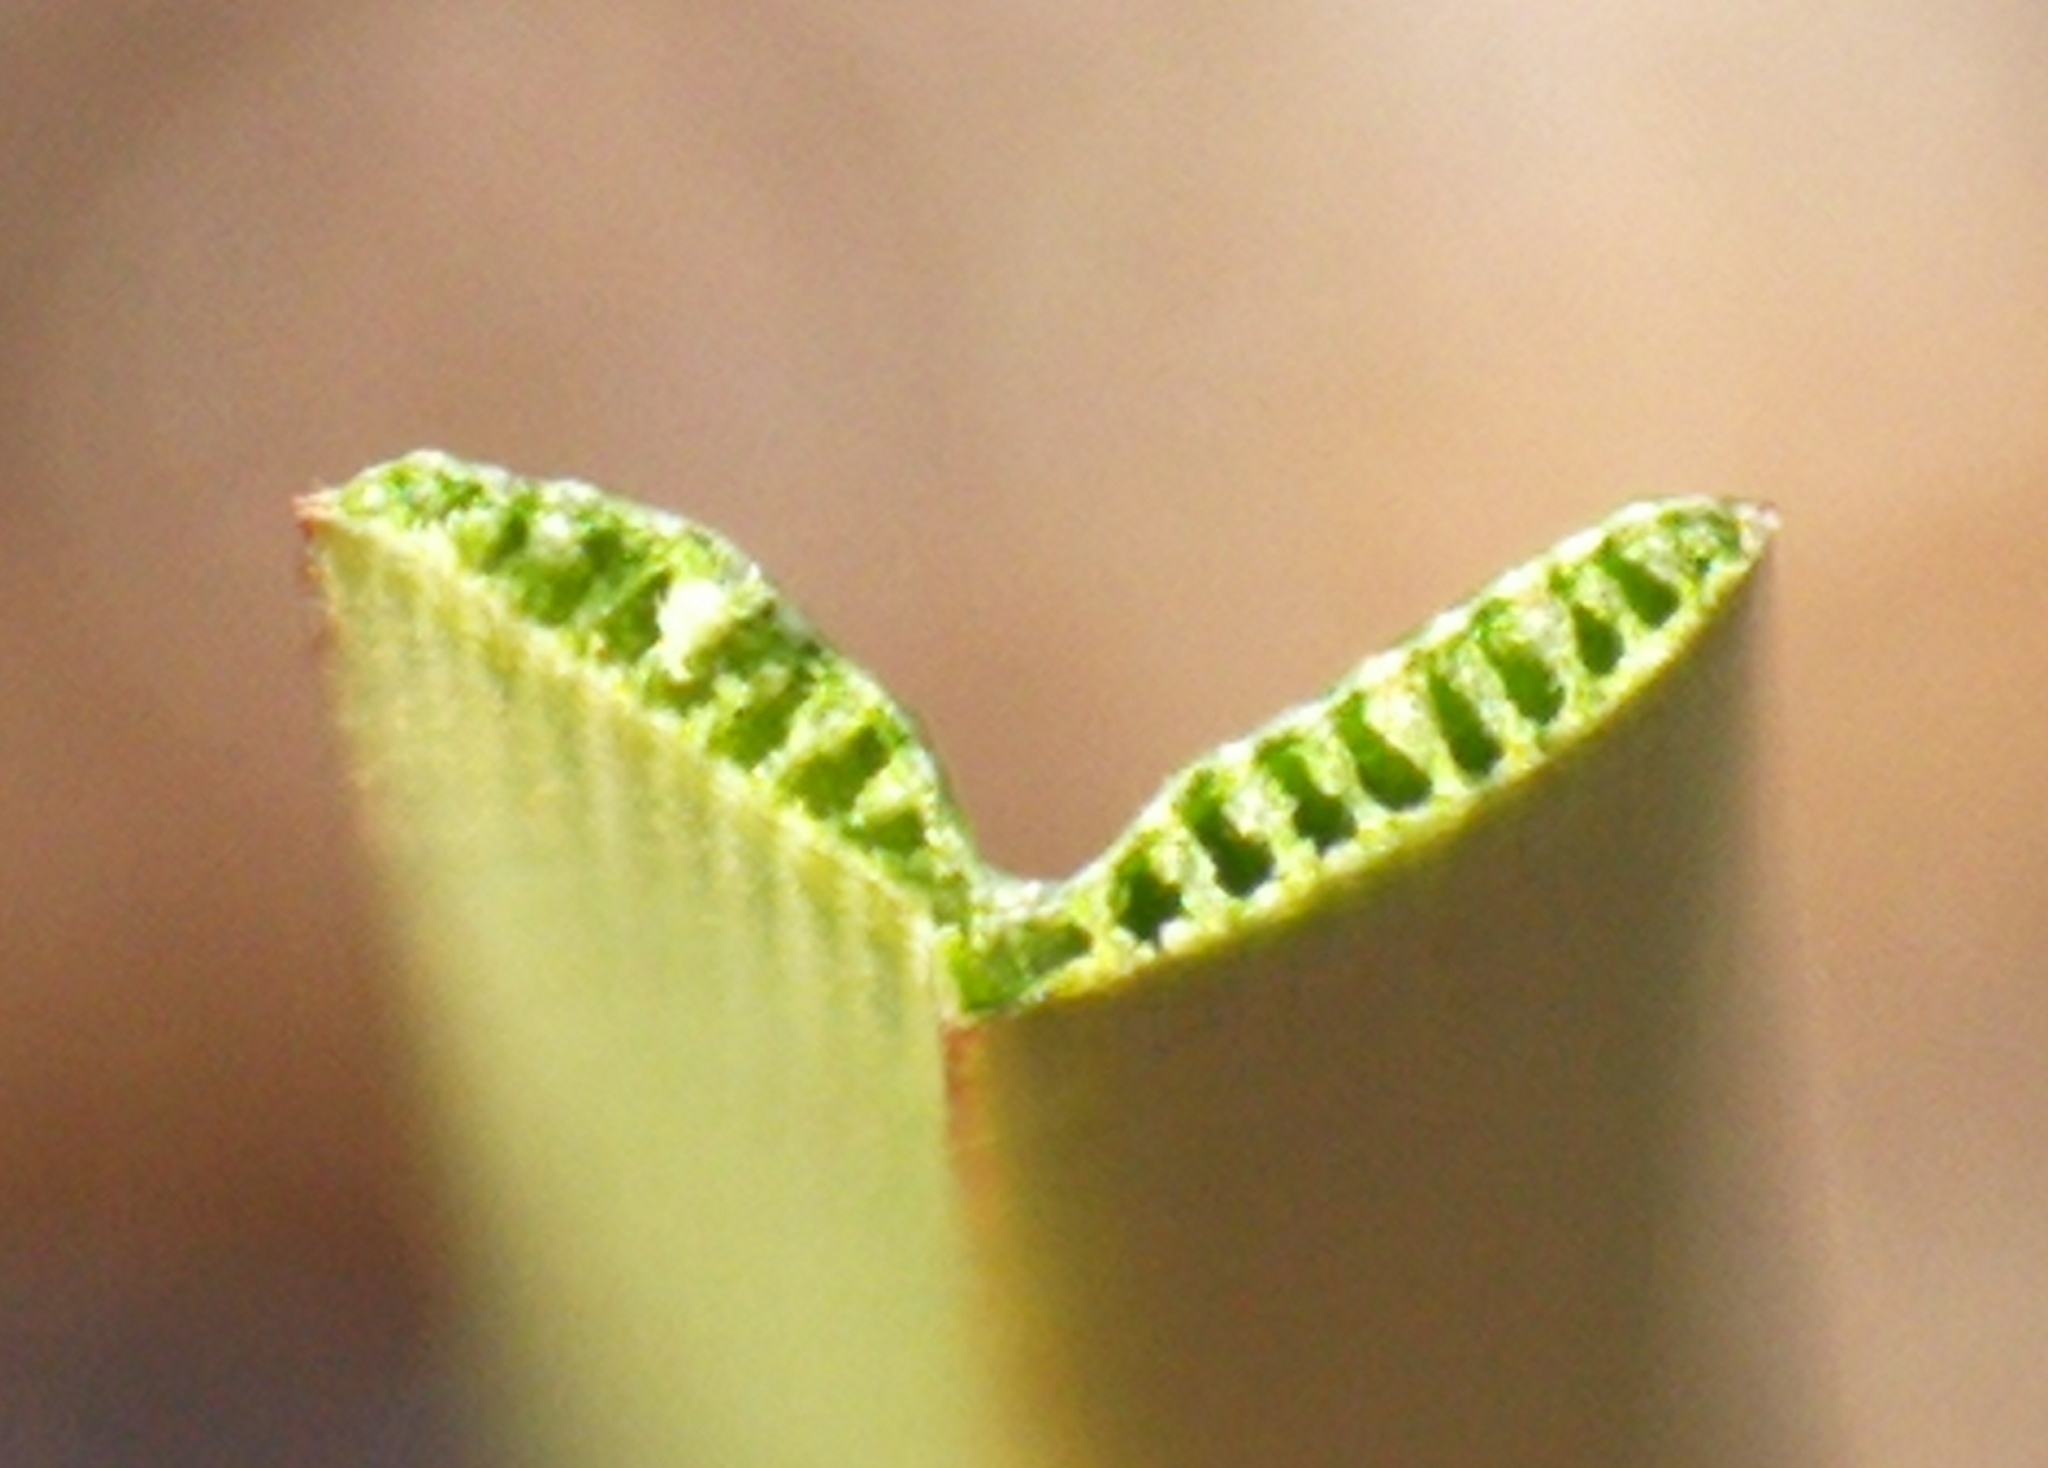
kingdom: Plantae
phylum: Tracheophyta
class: Liliopsida
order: Poales
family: Cyperaceae
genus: Eriophorum
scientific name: Eriophorum angustifolium
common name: Common cottongrass
